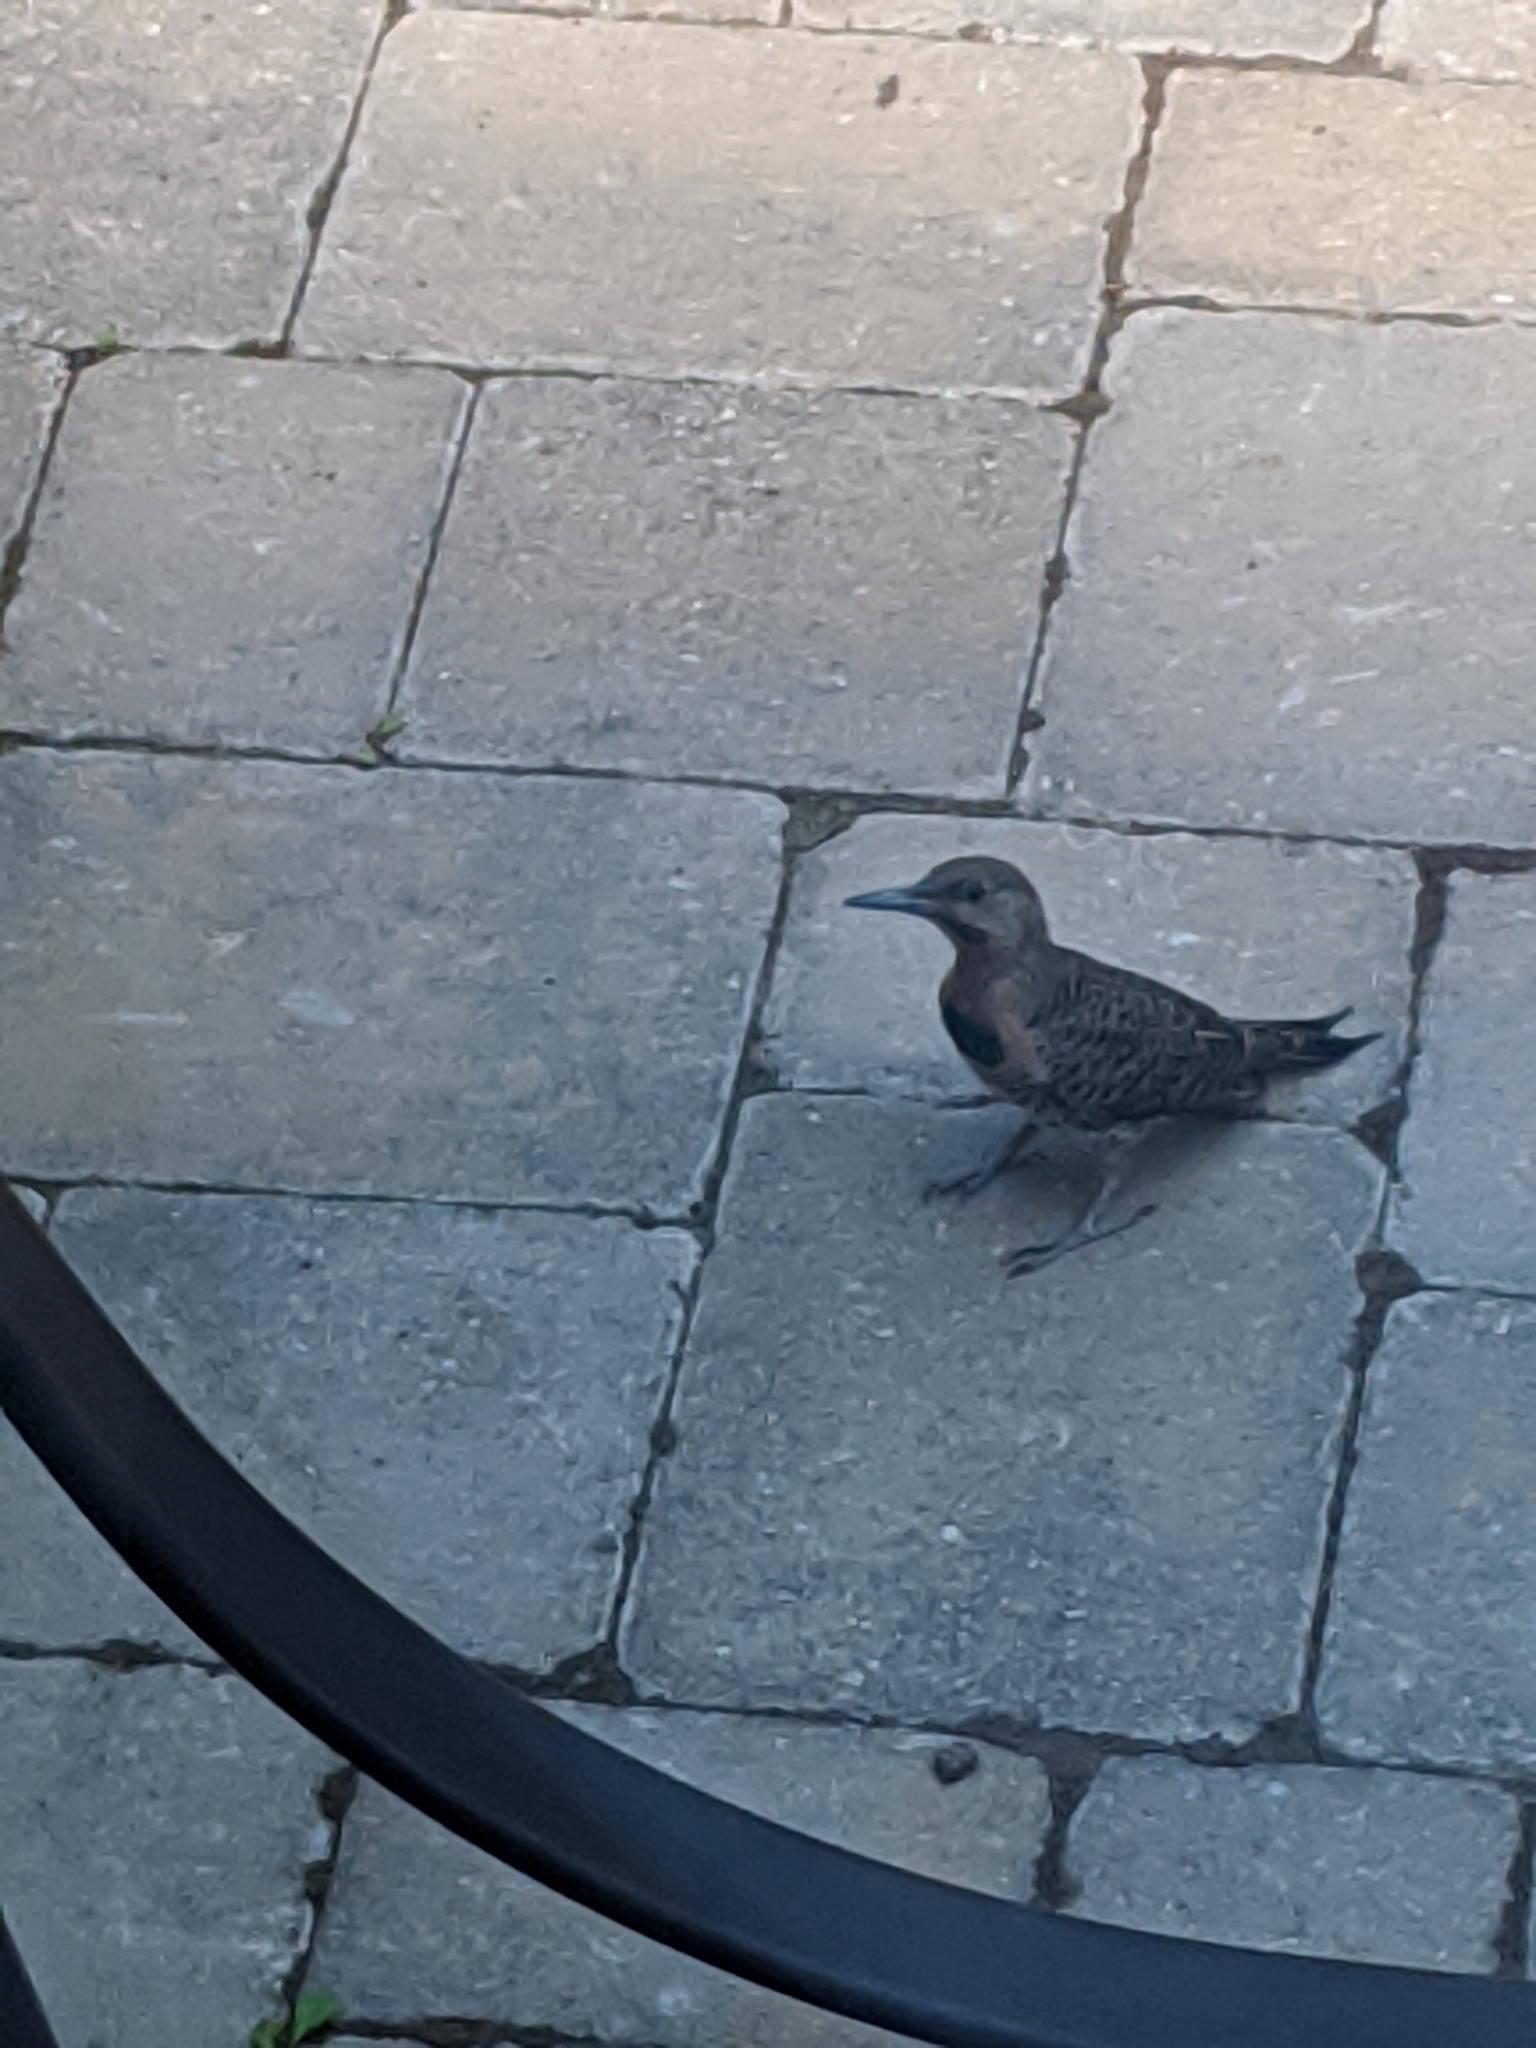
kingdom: Animalia
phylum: Chordata
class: Aves
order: Piciformes
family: Picidae
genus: Colaptes
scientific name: Colaptes auratus
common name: Northern flicker
